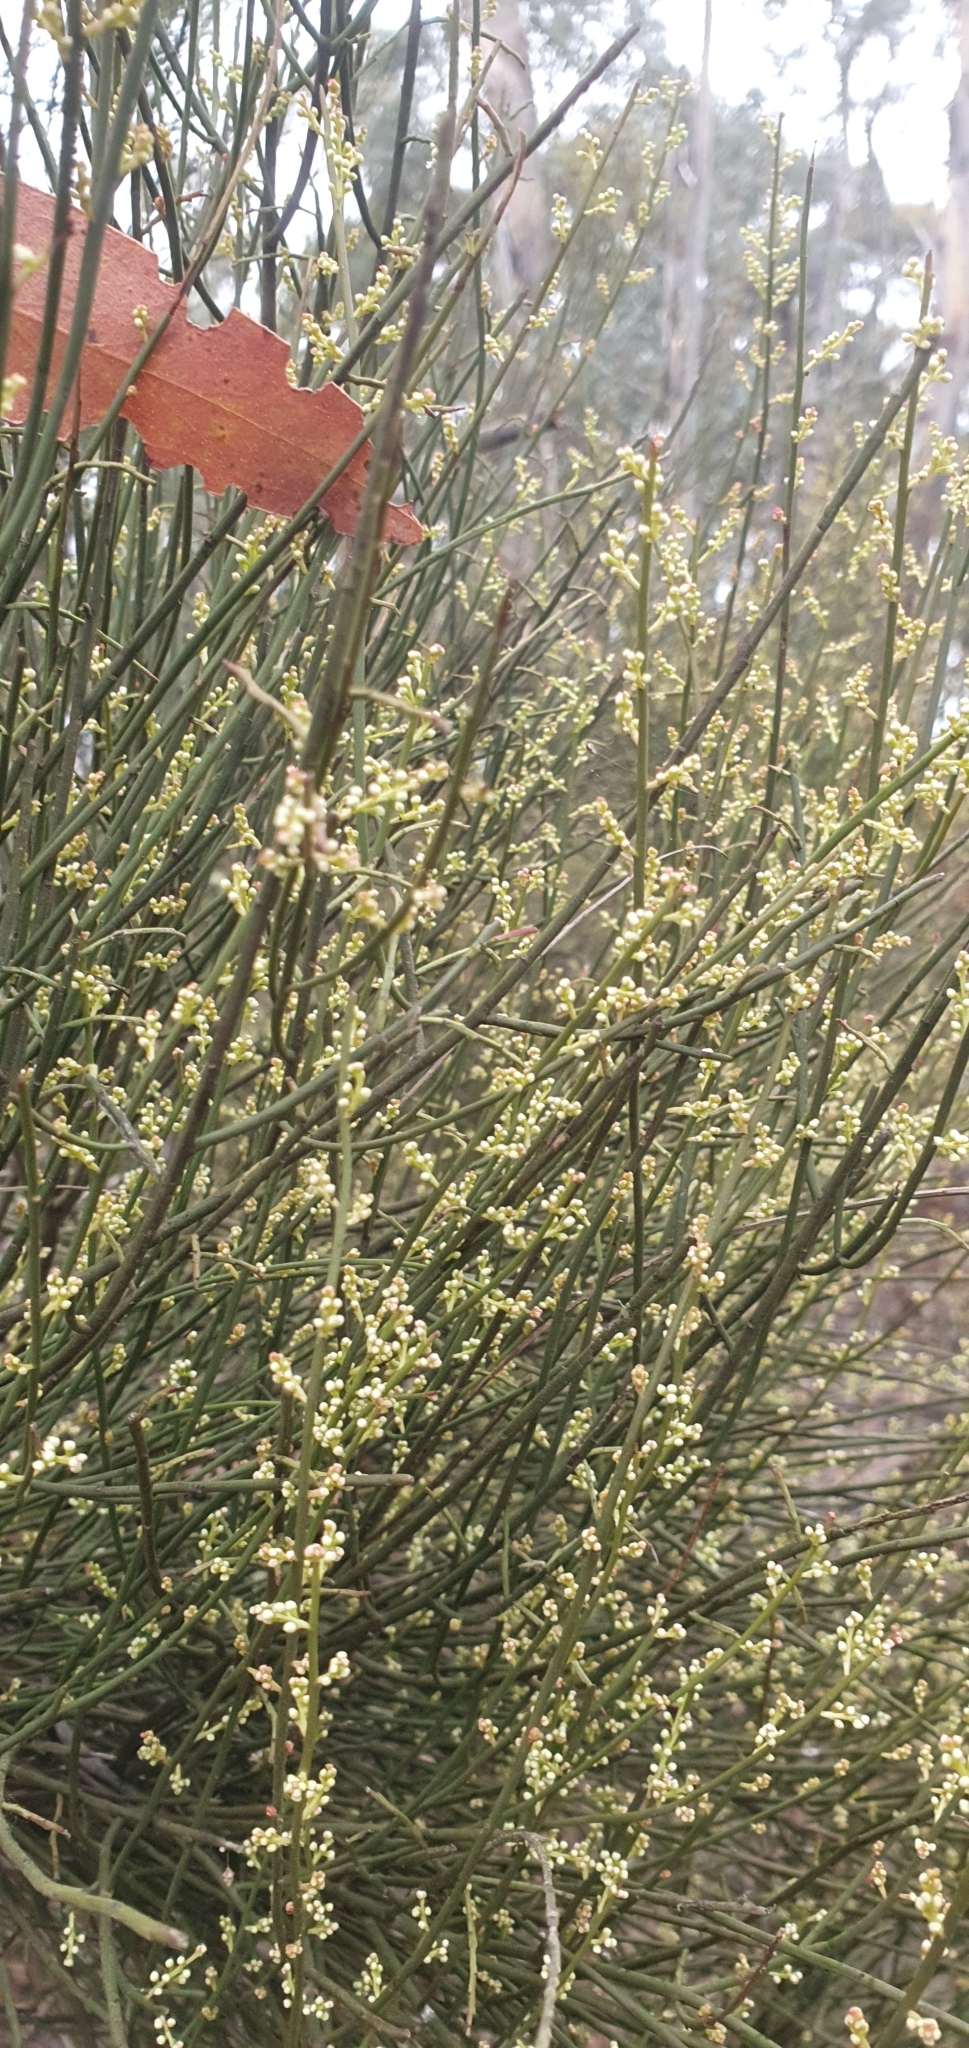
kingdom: Plantae
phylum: Tracheophyta
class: Magnoliopsida
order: Santalales
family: Amphorogynaceae
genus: Leptomeria
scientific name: Leptomeria drupacea
